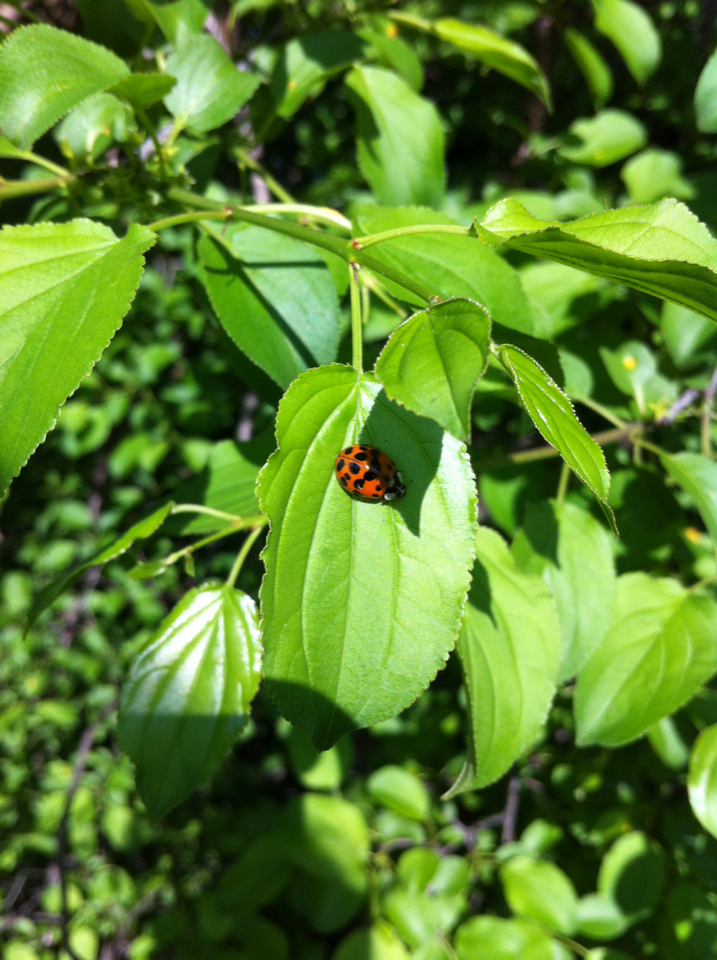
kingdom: Animalia
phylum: Arthropoda
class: Insecta
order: Coleoptera
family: Coccinellidae
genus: Harmonia
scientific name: Harmonia axyridis
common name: Harlequin ladybird
